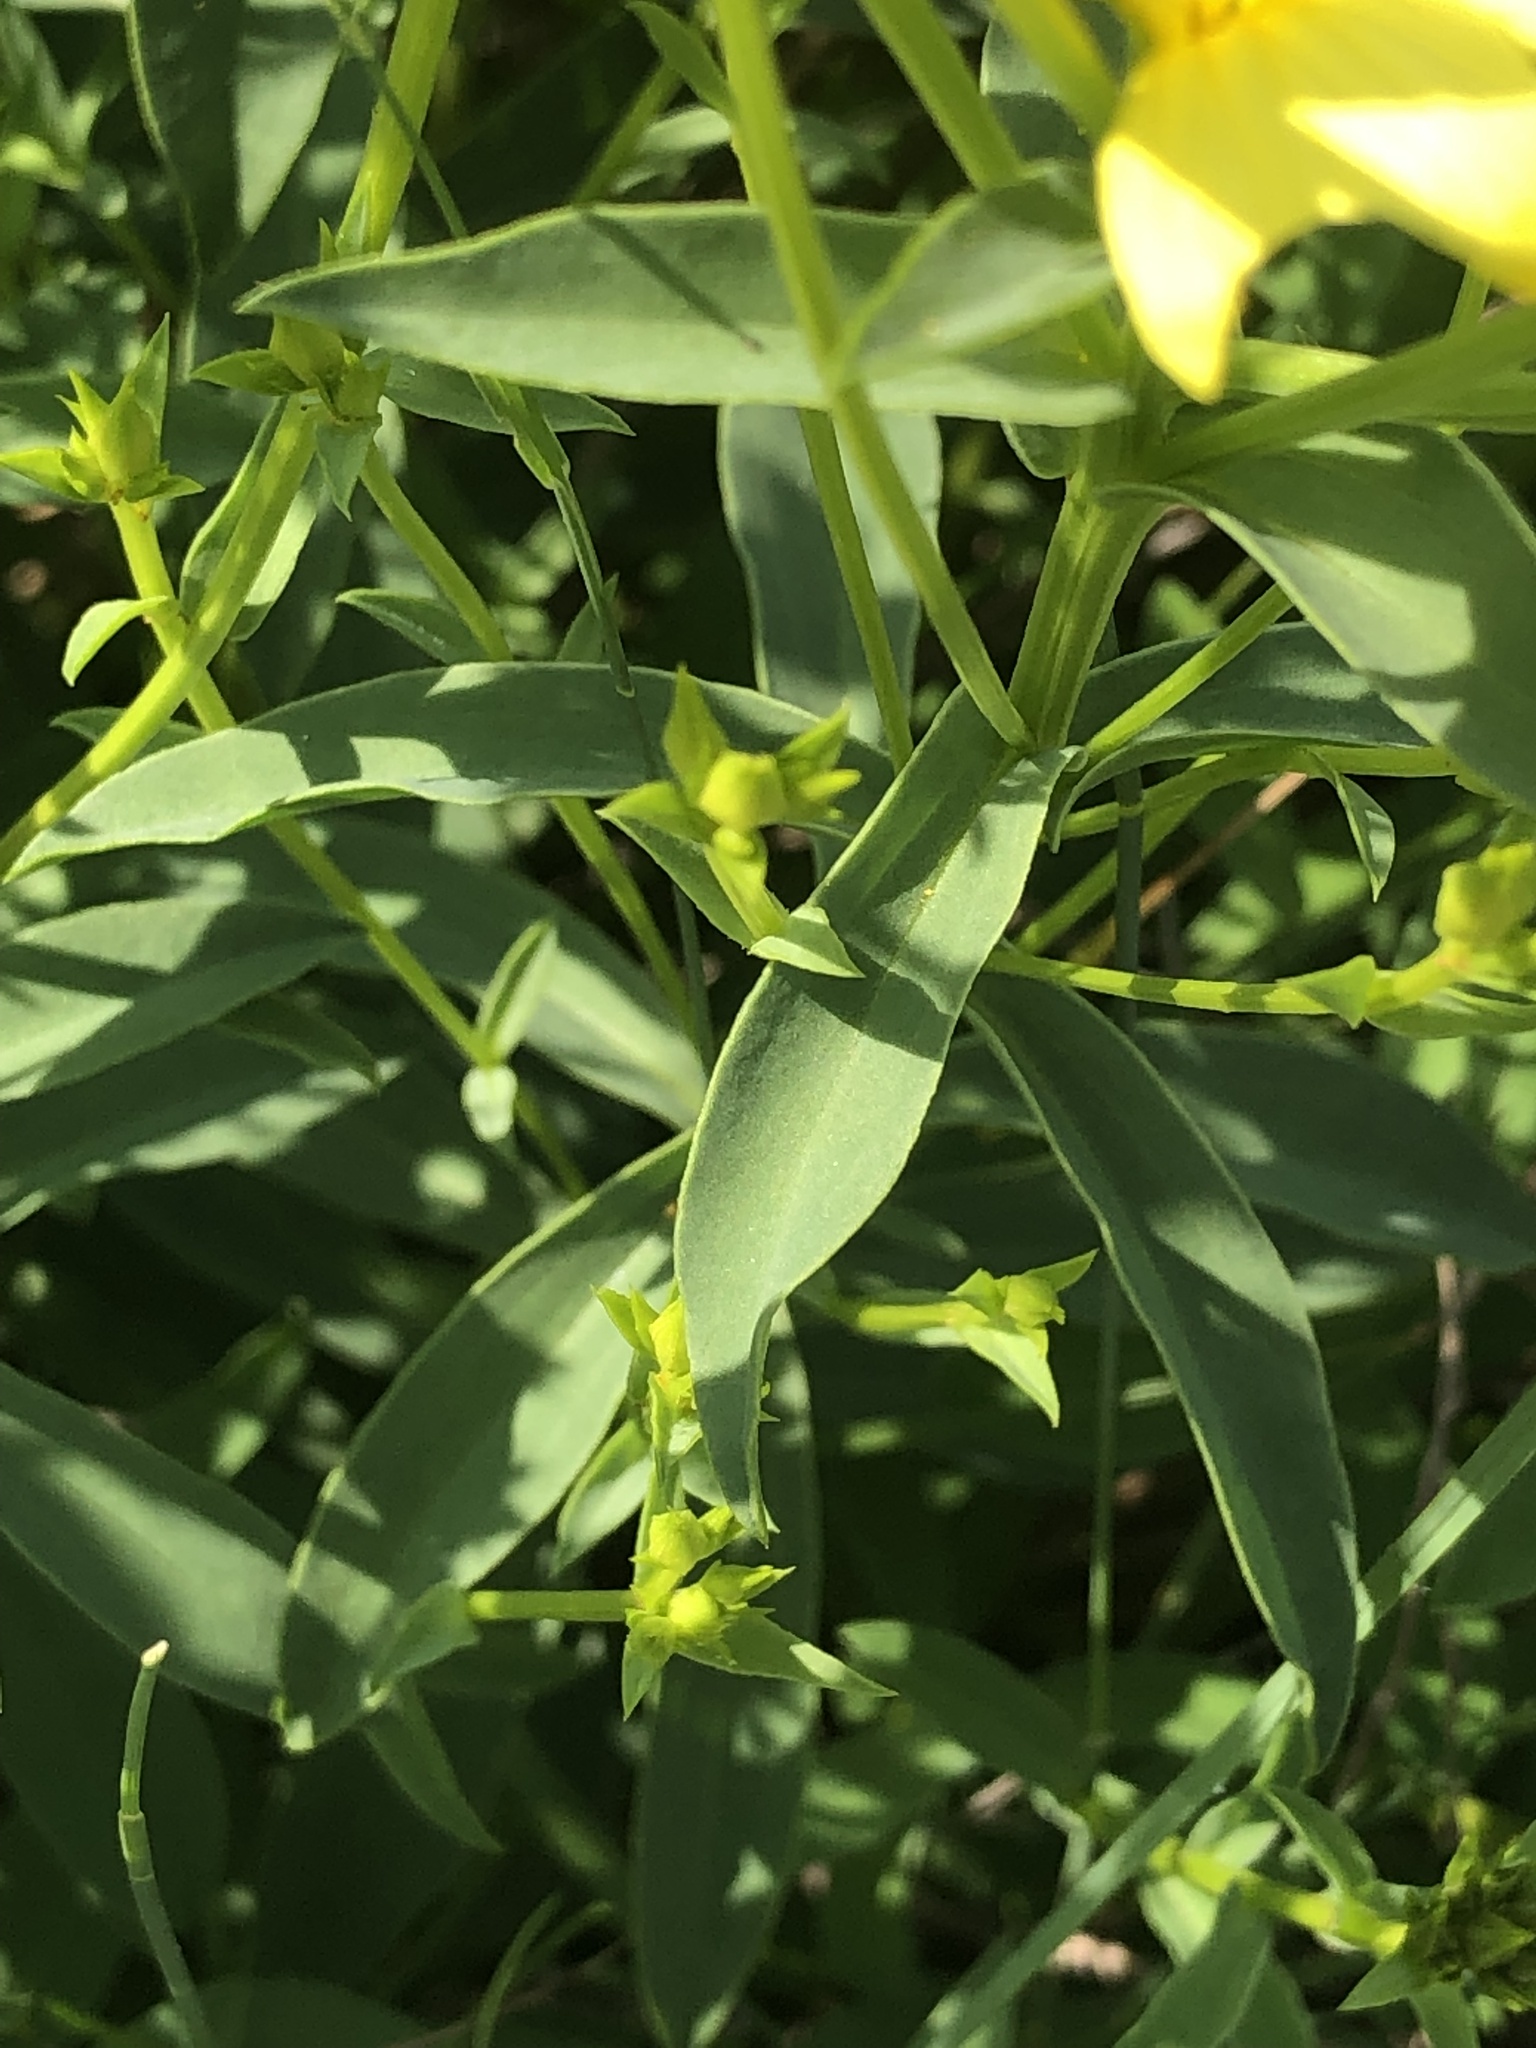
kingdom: Plantae
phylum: Tracheophyta
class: Magnoliopsida
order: Malpighiales
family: Linaceae
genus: Linum
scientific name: Linum flavum
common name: Yellow flax
